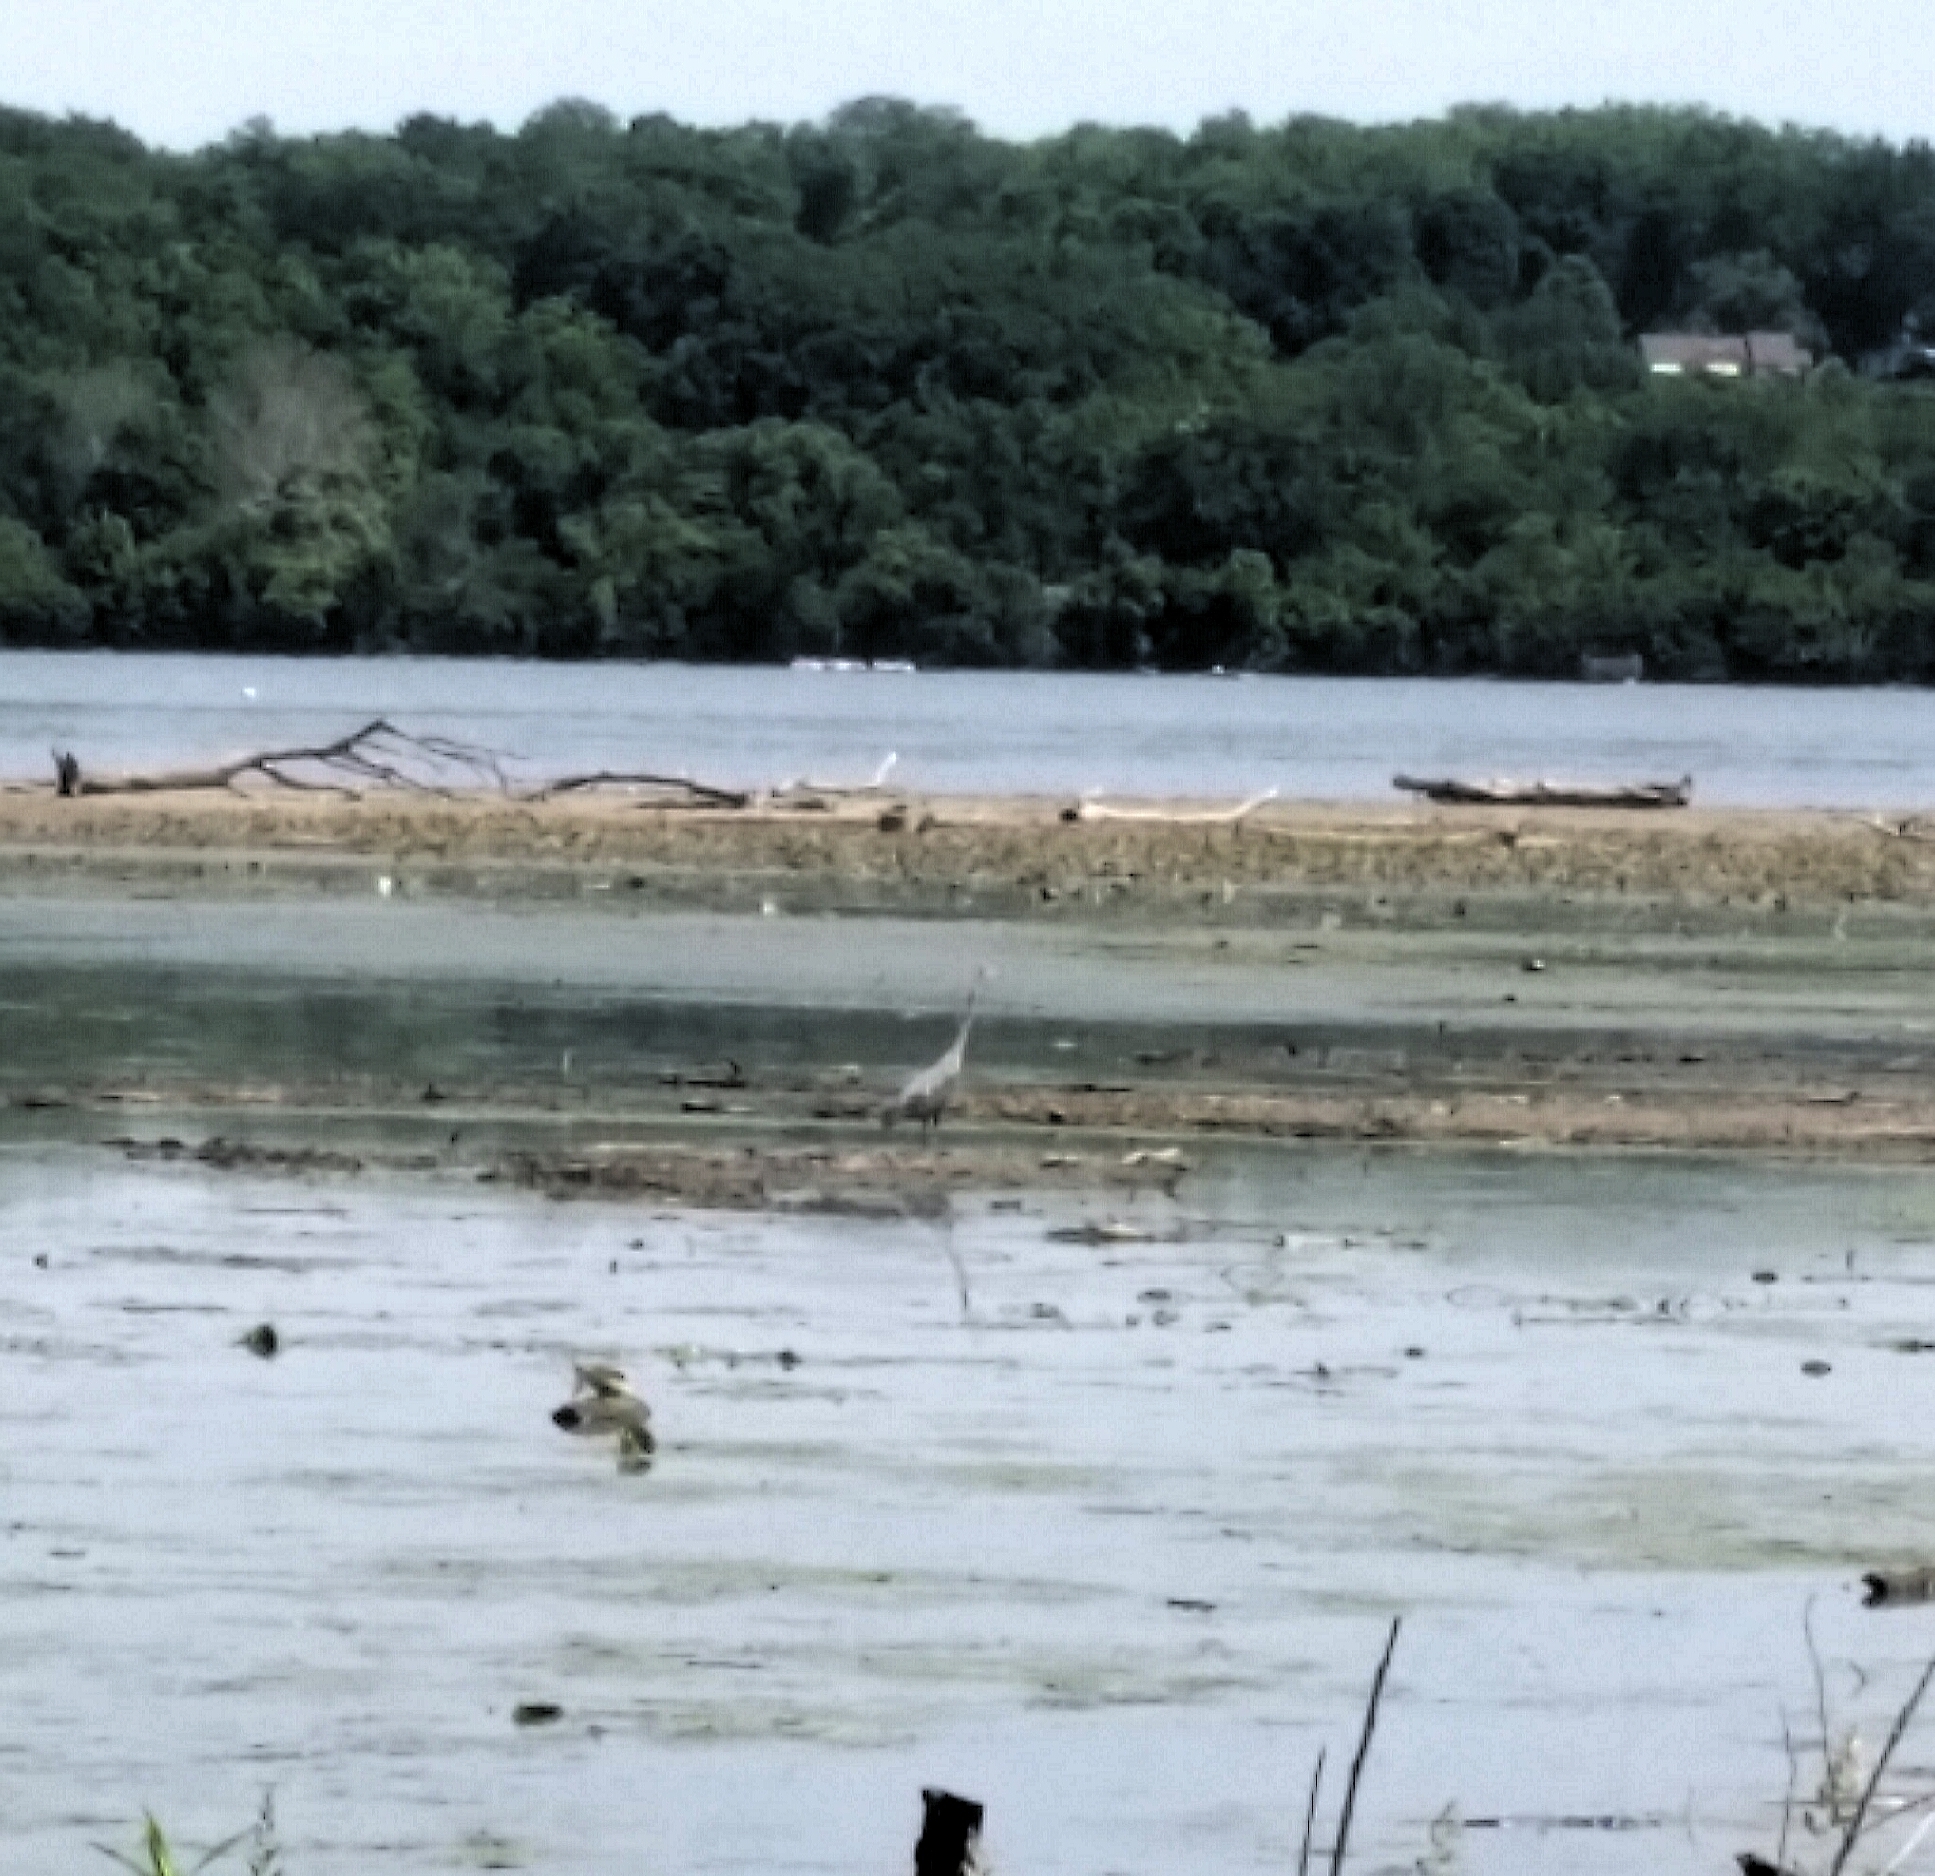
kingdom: Animalia
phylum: Chordata
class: Aves
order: Pelecaniformes
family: Ardeidae
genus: Ardea
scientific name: Ardea herodias
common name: Great blue heron
